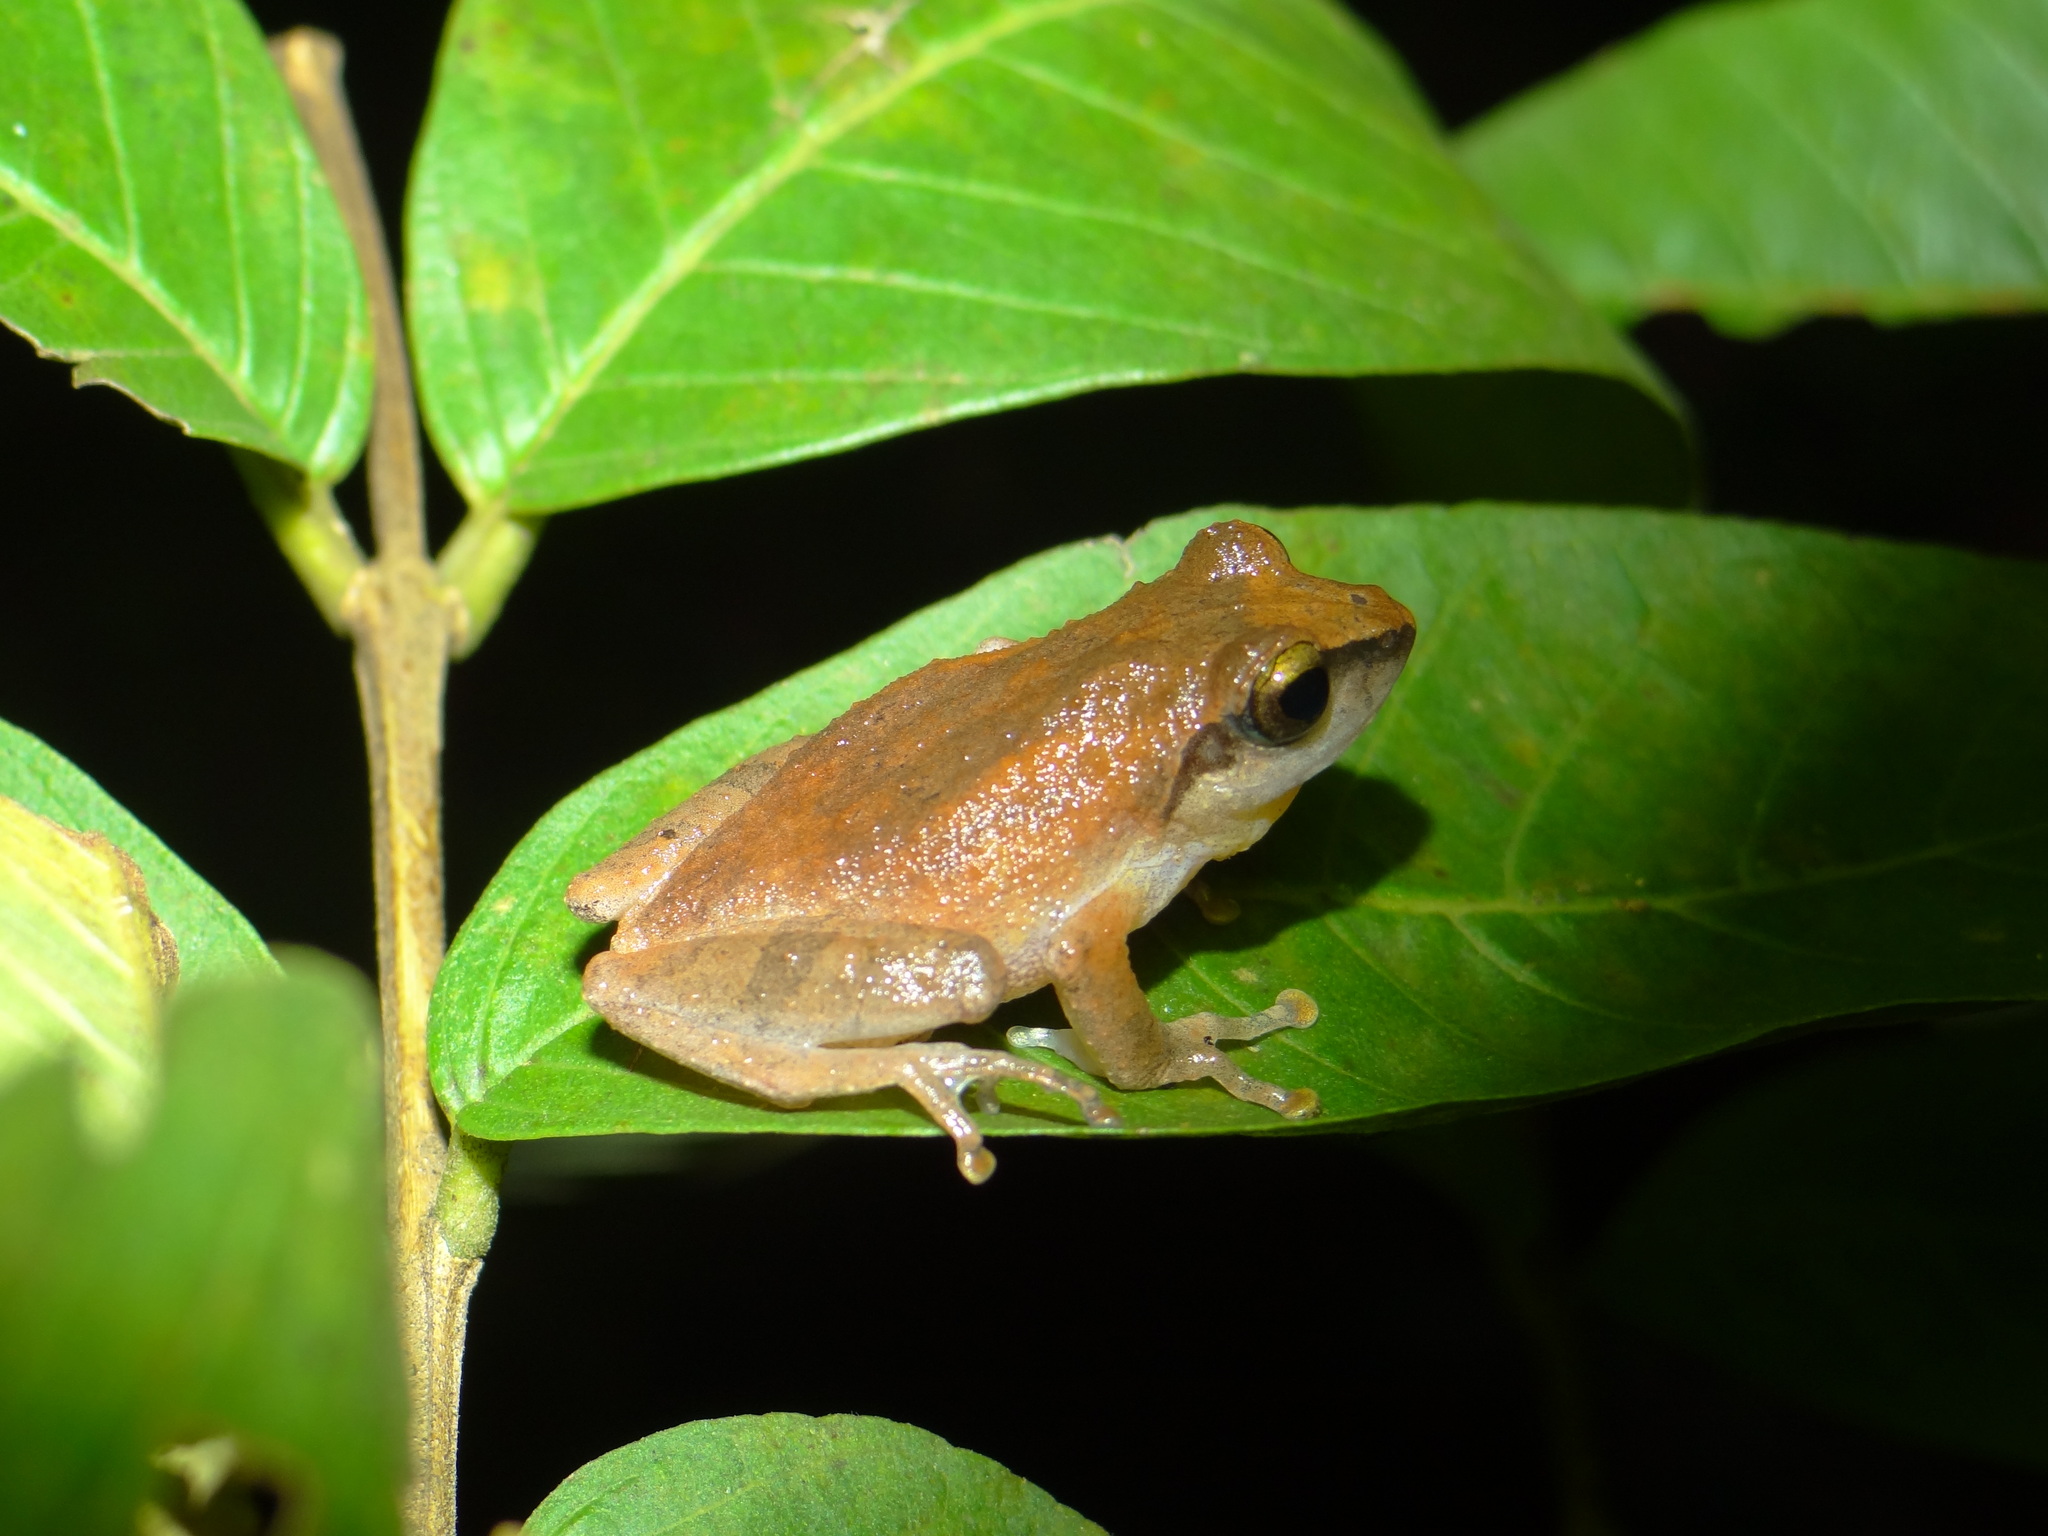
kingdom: Animalia
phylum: Chordata
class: Amphibia
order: Anura
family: Rhacophoridae
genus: Pseudophilautus
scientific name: Pseudophilautus wynaadensis
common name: Dark-eared bush frog
